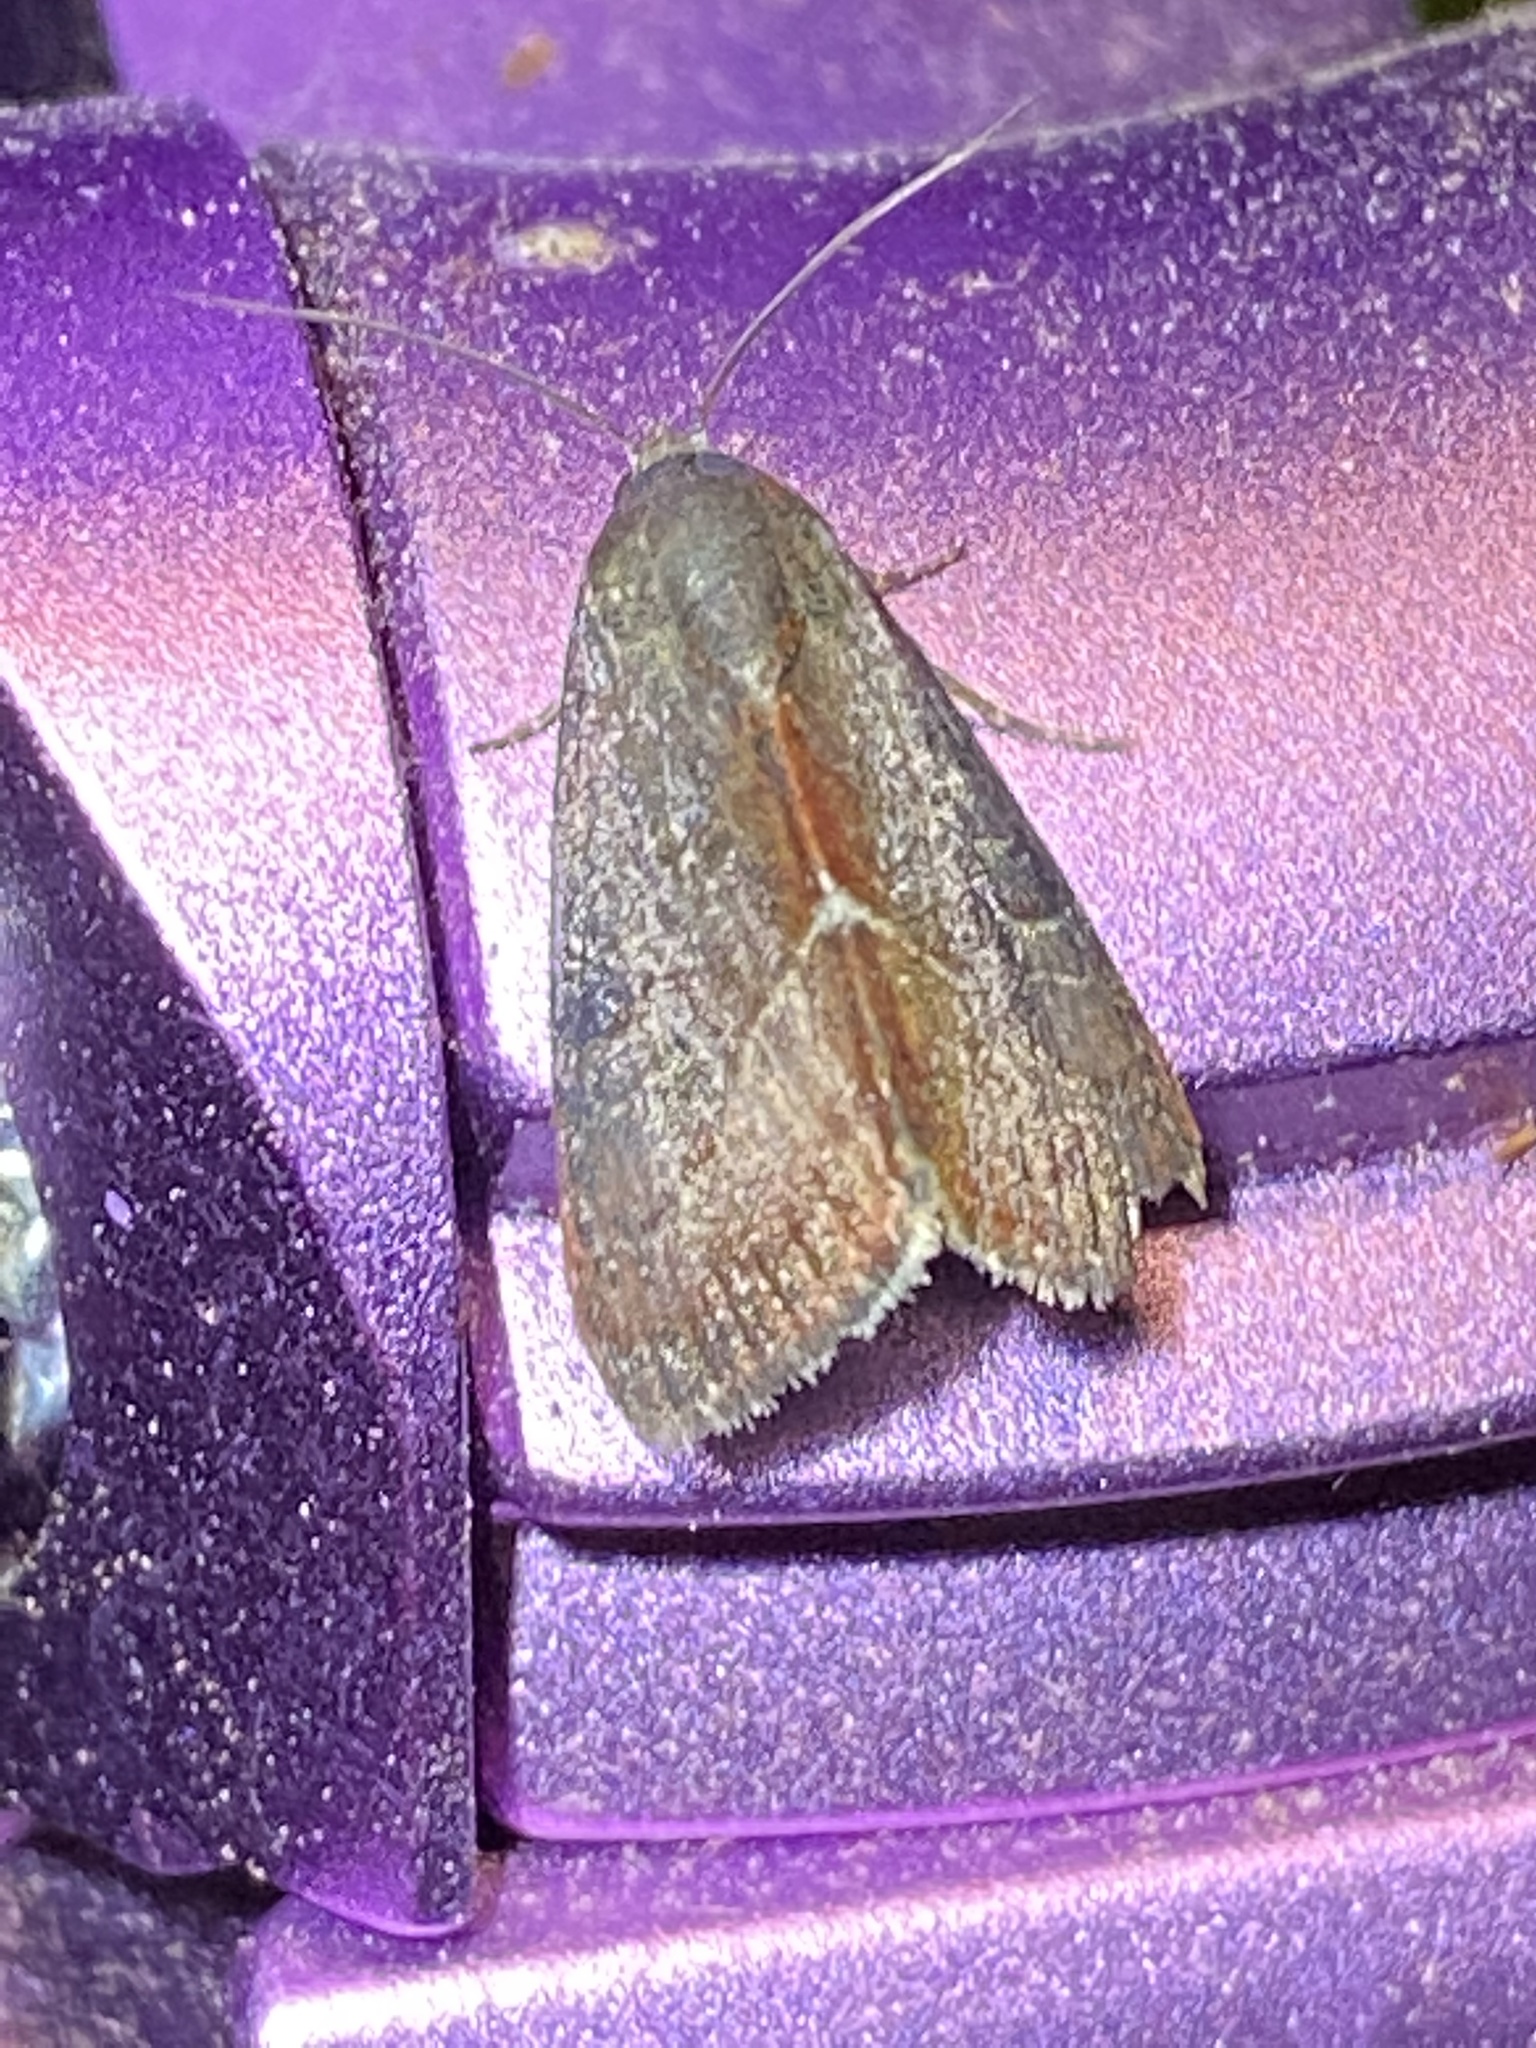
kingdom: Animalia
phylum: Arthropoda
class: Insecta
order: Lepidoptera
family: Noctuidae
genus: Galgula
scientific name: Galgula partita
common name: Wedgeling
